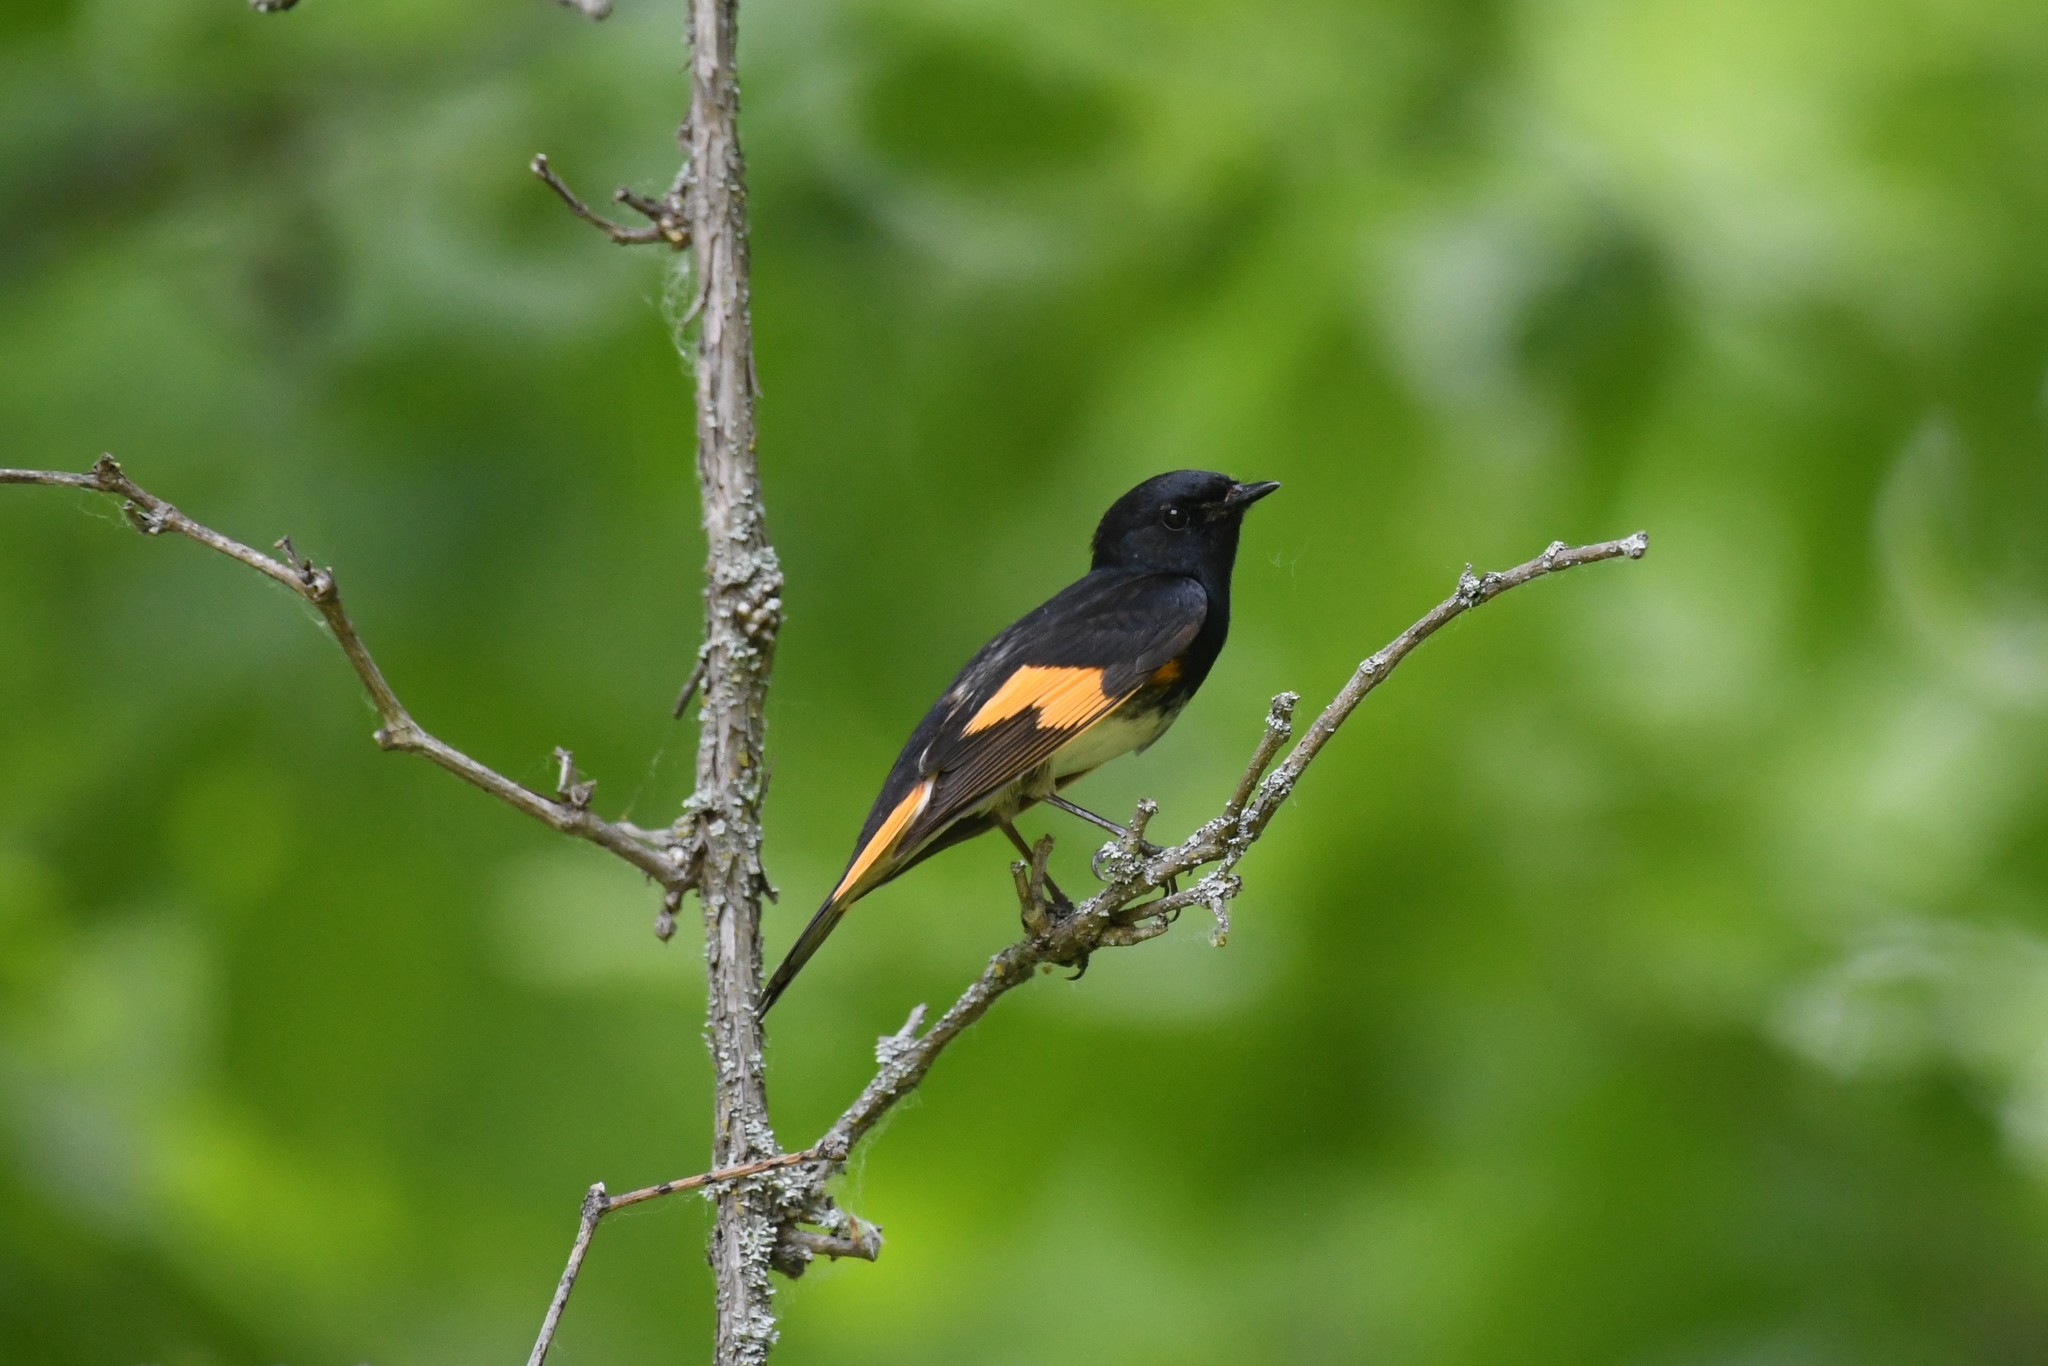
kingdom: Animalia
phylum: Chordata
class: Aves
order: Passeriformes
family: Parulidae
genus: Setophaga
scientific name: Setophaga ruticilla
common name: American redstart
